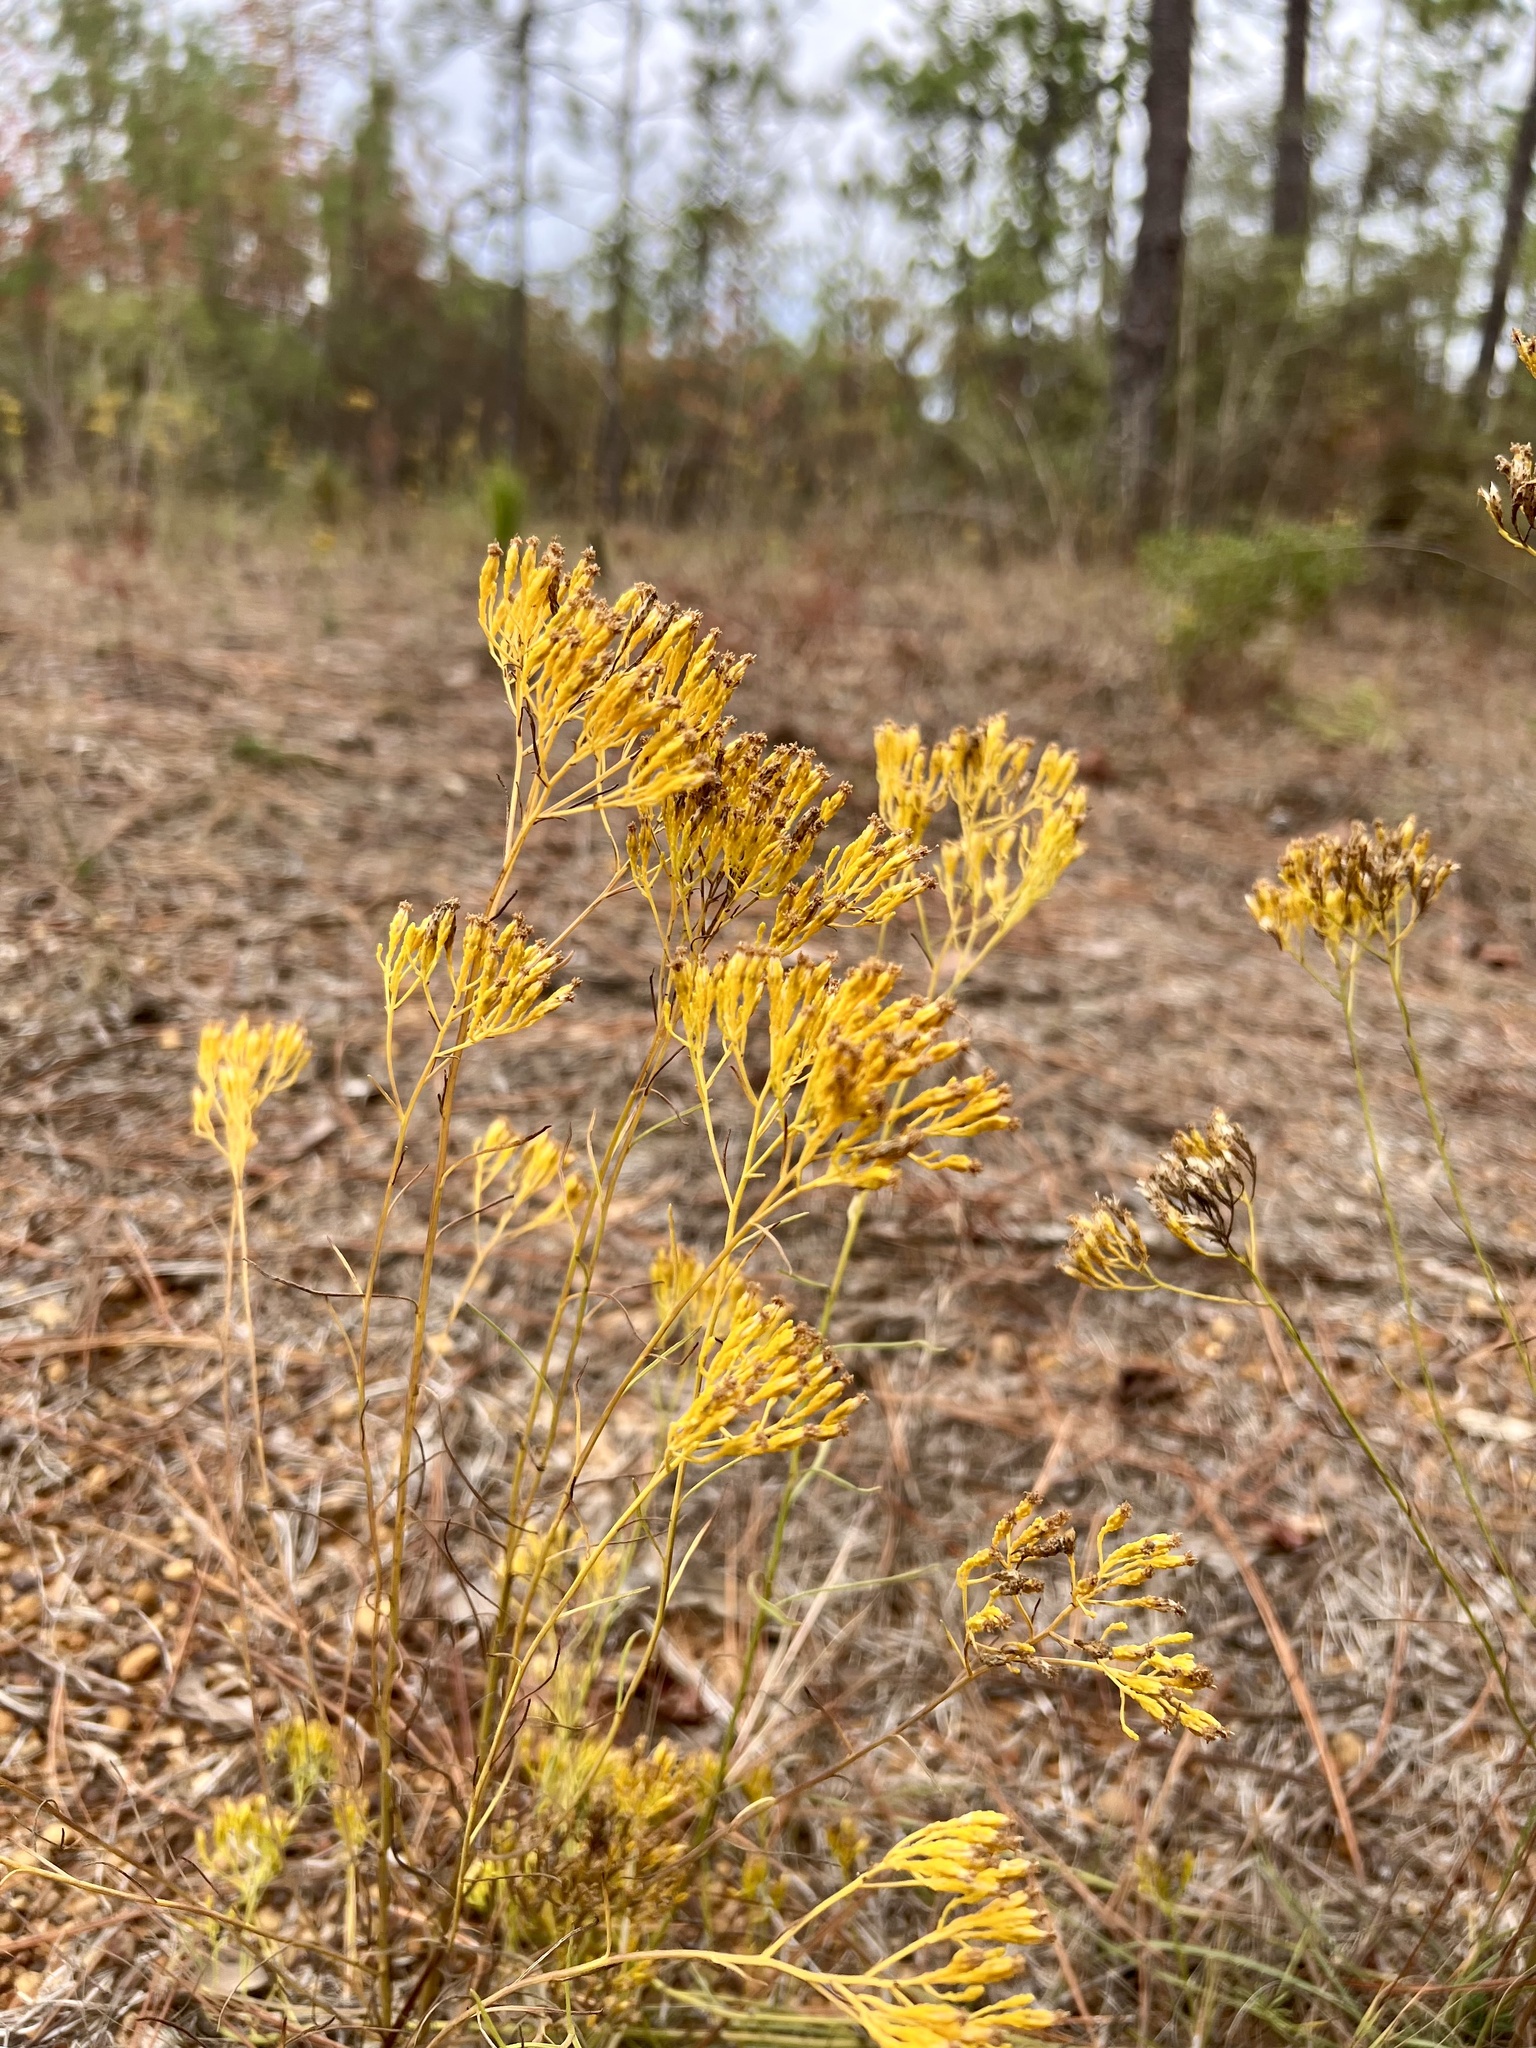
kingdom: Plantae
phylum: Tracheophyta
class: Magnoliopsida
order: Asterales
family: Asteraceae
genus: Bigelowia
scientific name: Bigelowia nuttallii
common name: Nuttall's rayless-goldenrod
